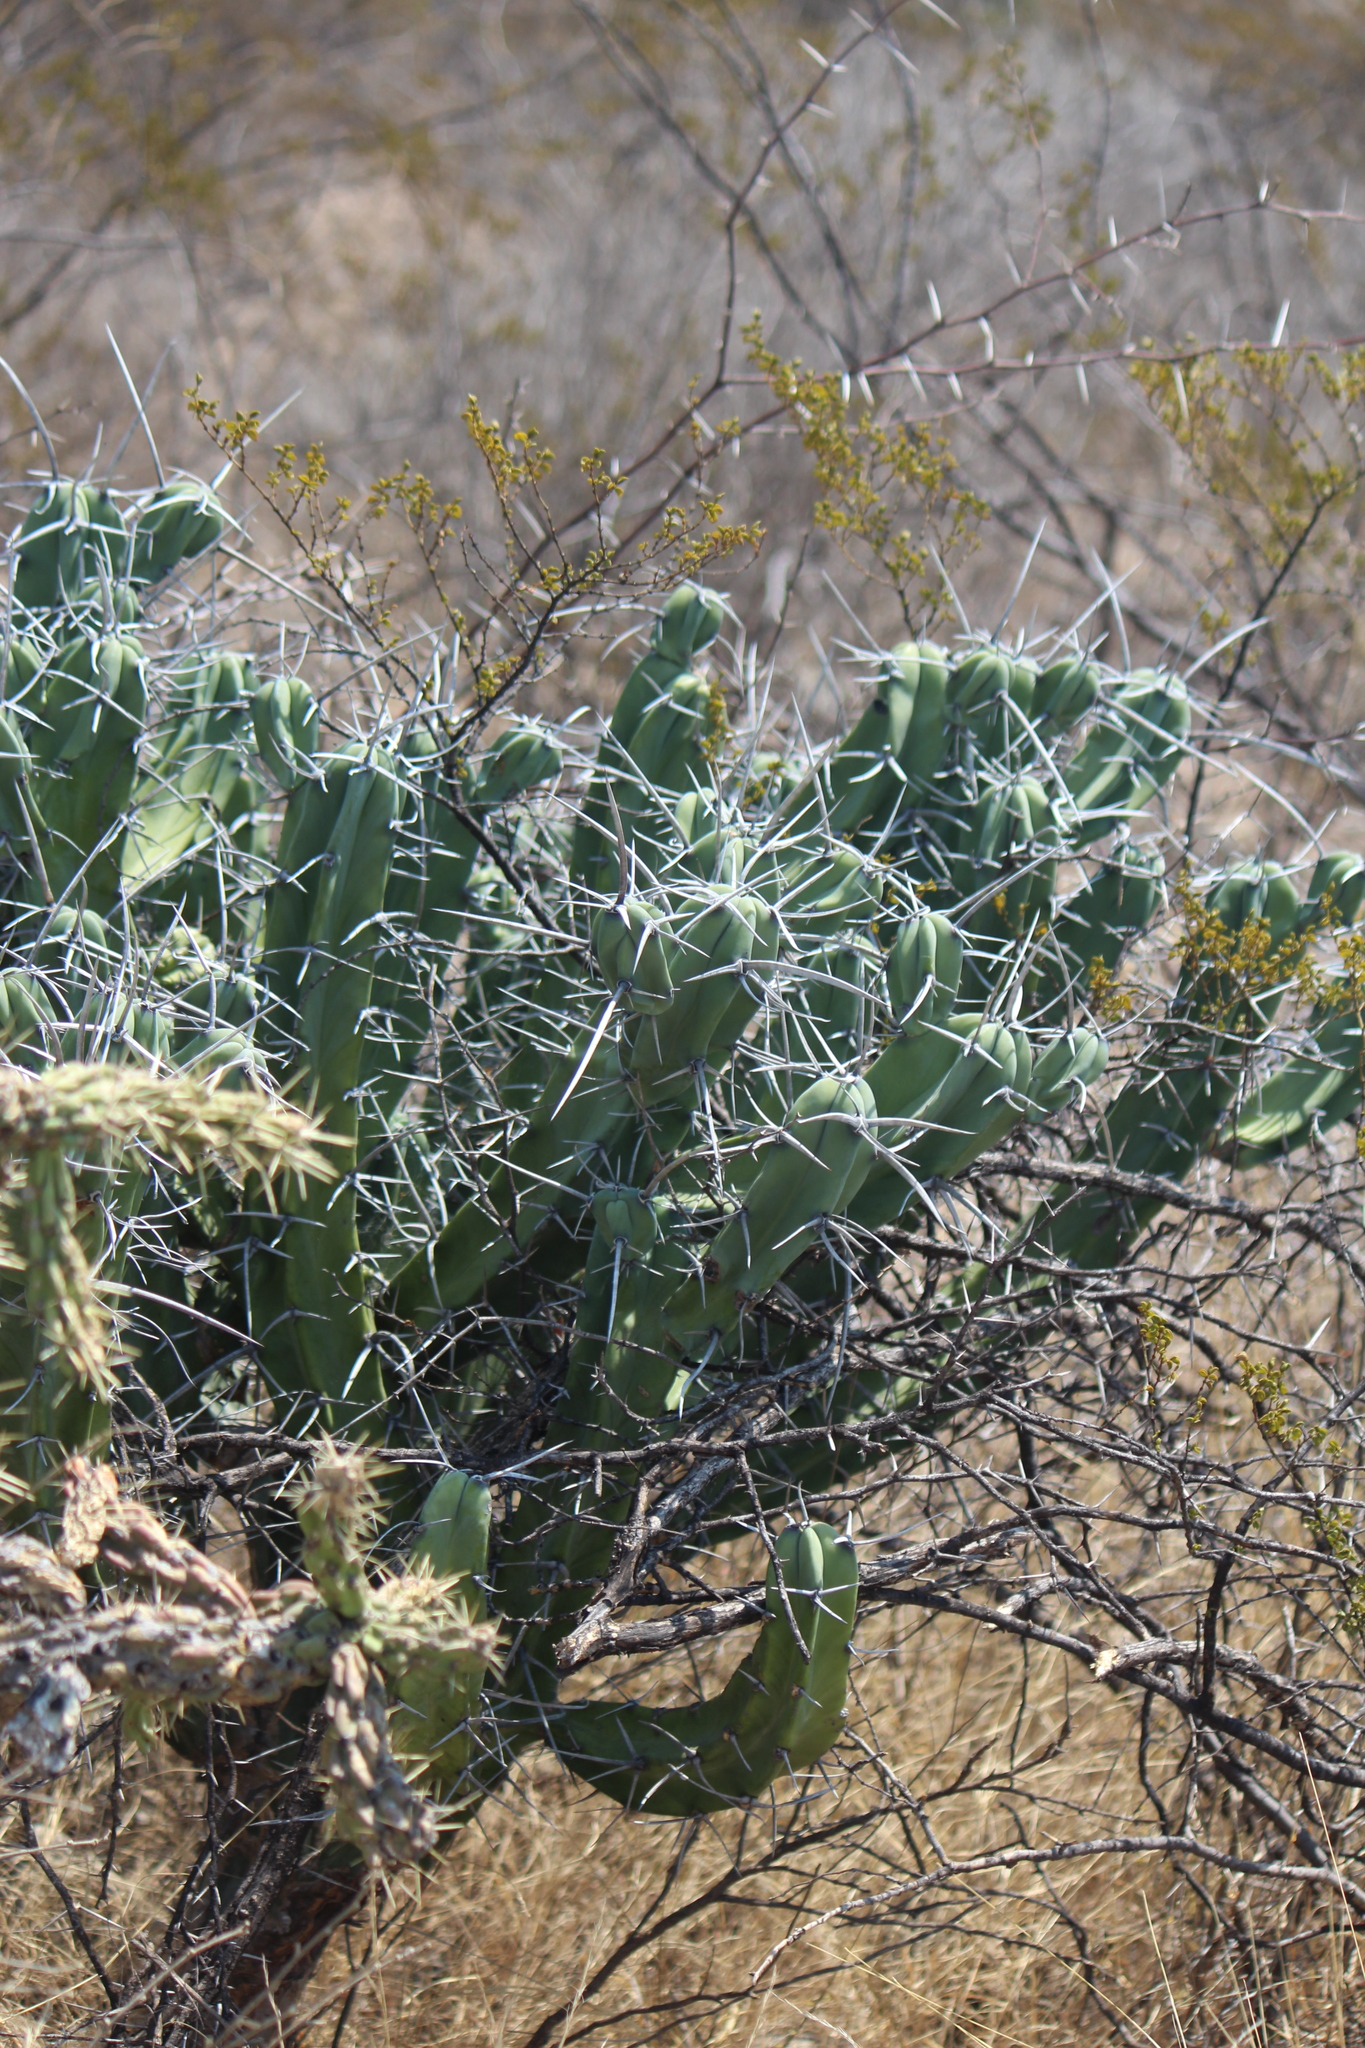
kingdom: Plantae
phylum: Tracheophyta
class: Magnoliopsida
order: Caryophyllales
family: Cactaceae
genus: Myrtillocactus
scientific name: Myrtillocactus geometrizans
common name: Bilberry cactus
